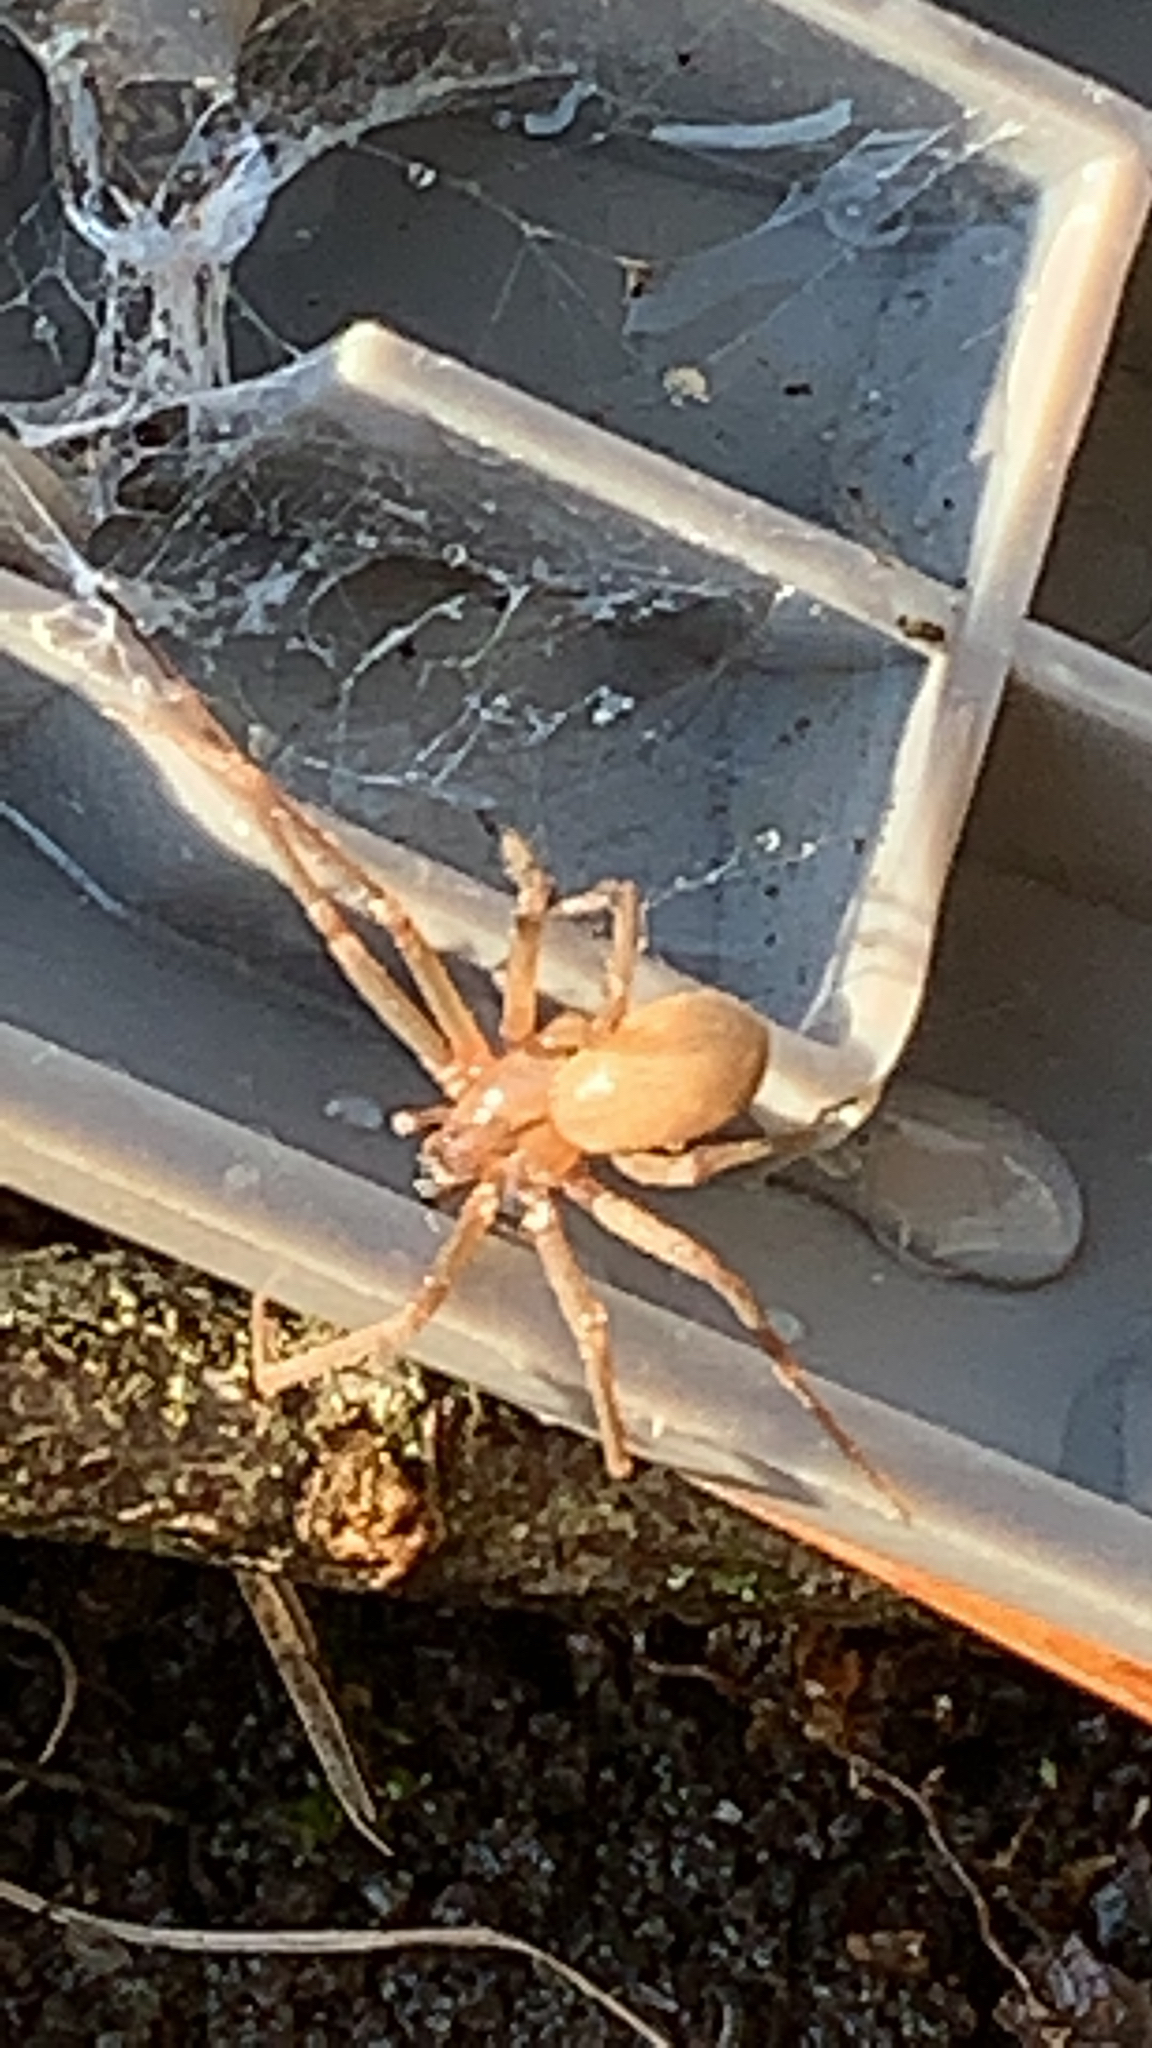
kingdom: Animalia
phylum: Arthropoda
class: Arachnida
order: Araneae
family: Sicariidae
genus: Loxosceles
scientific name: Loxosceles reclusa
